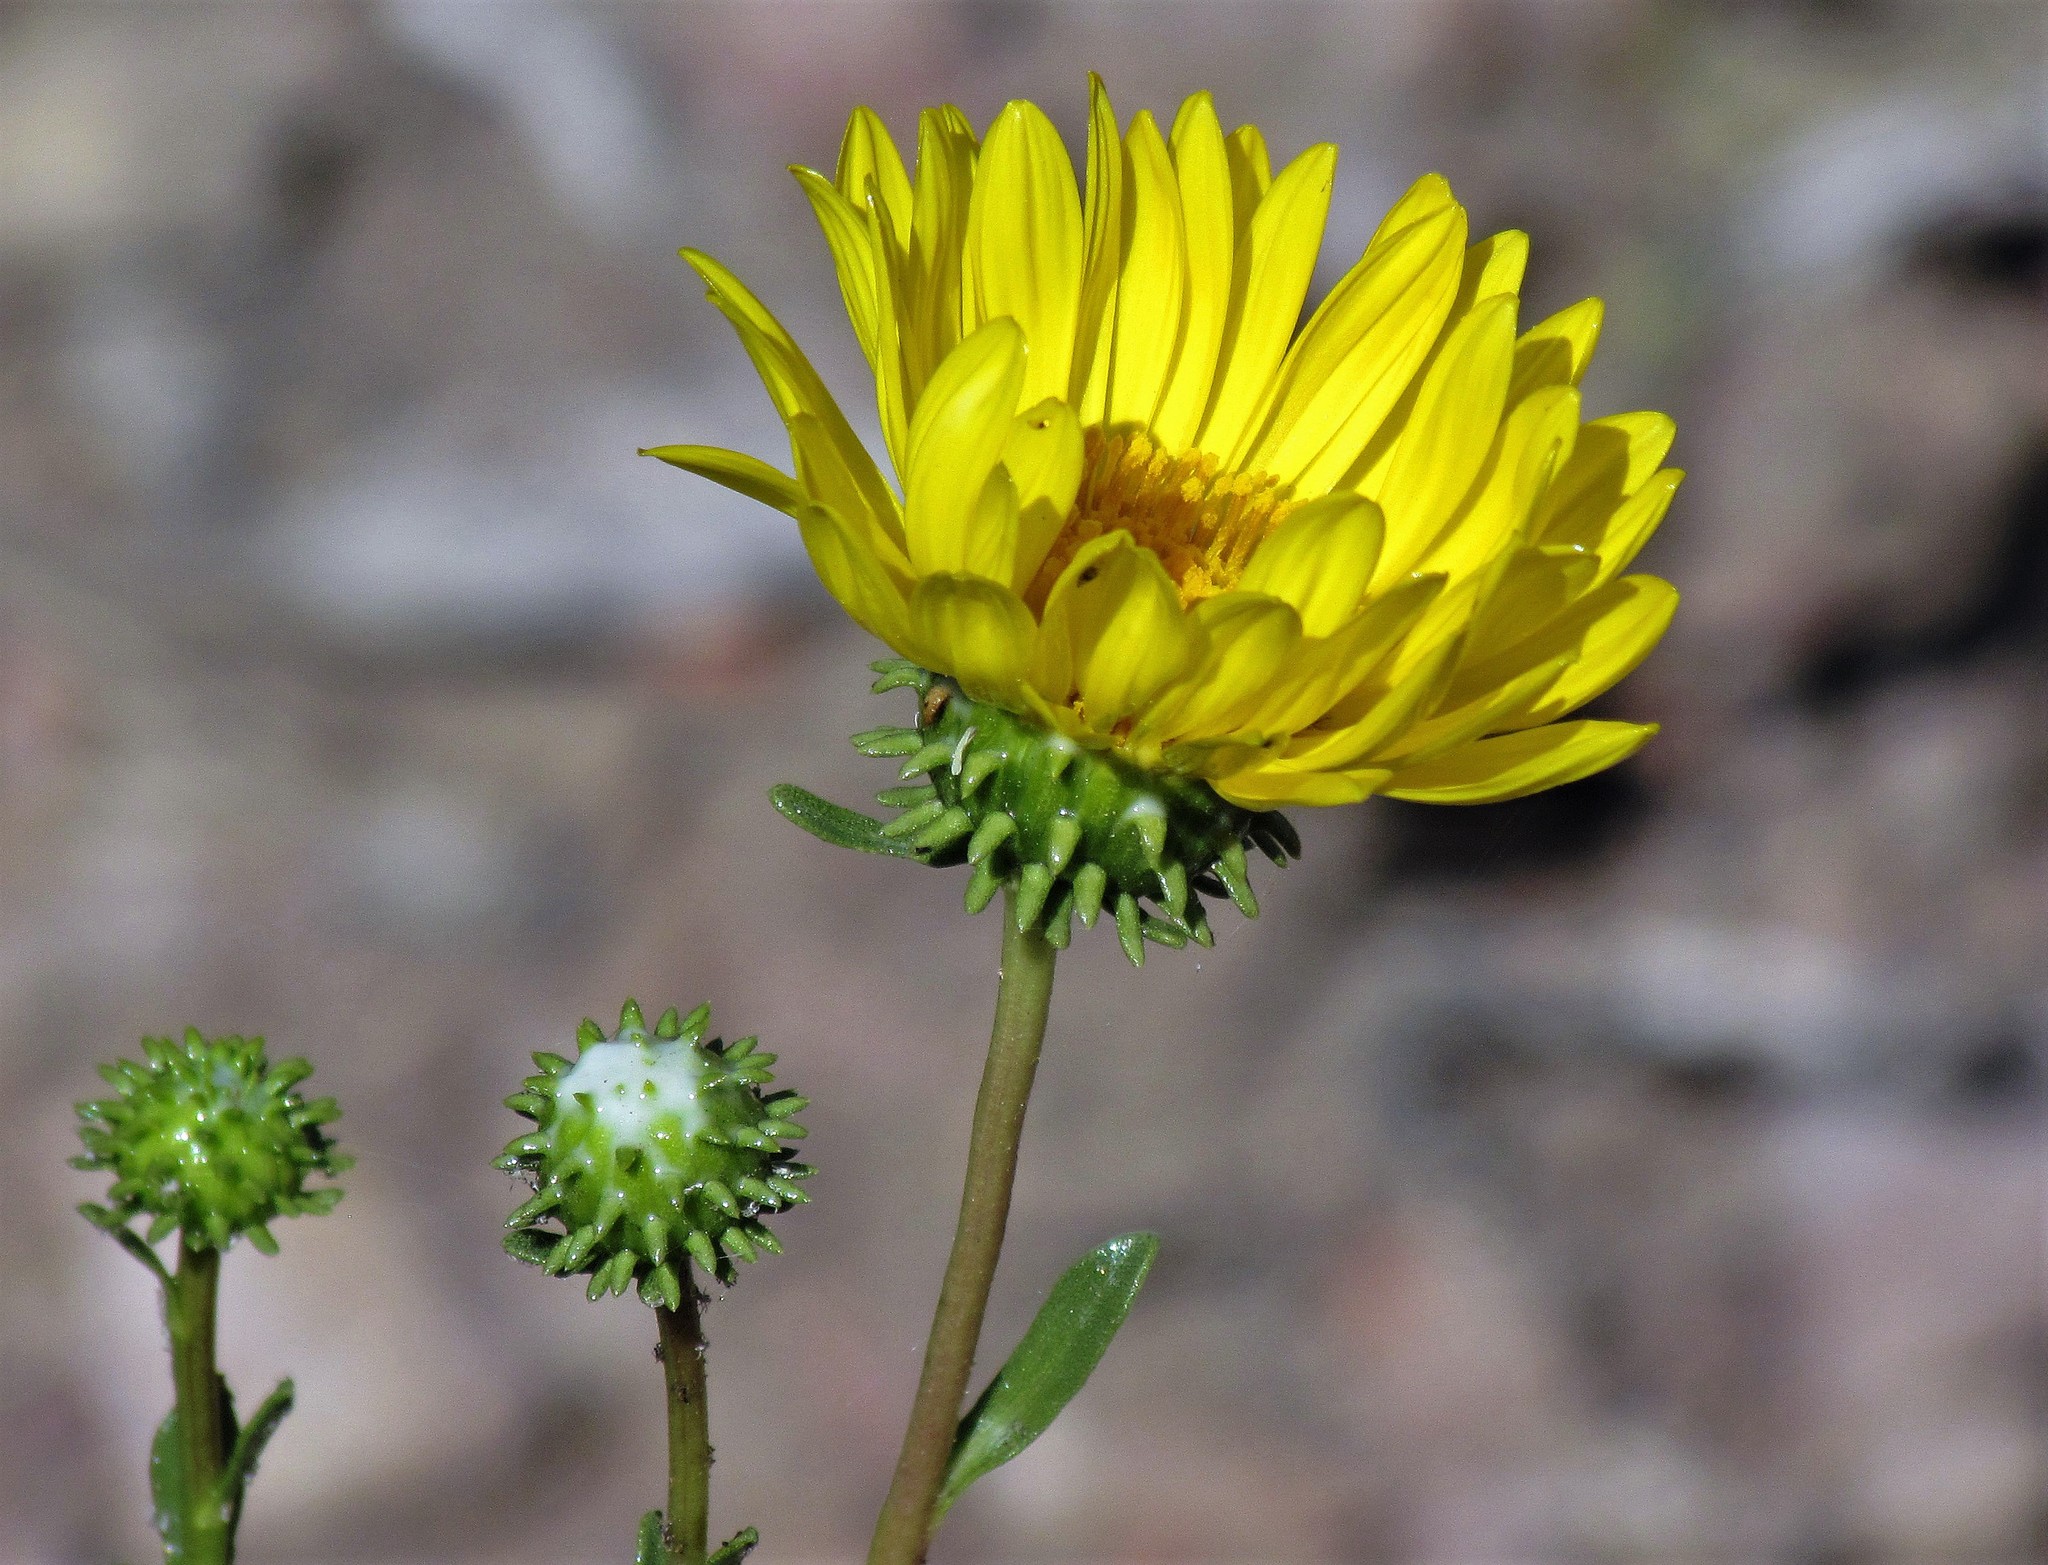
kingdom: Plantae
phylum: Tracheophyta
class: Magnoliopsida
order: Asterales
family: Asteraceae
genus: Grindelia
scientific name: Grindelia pulchella
